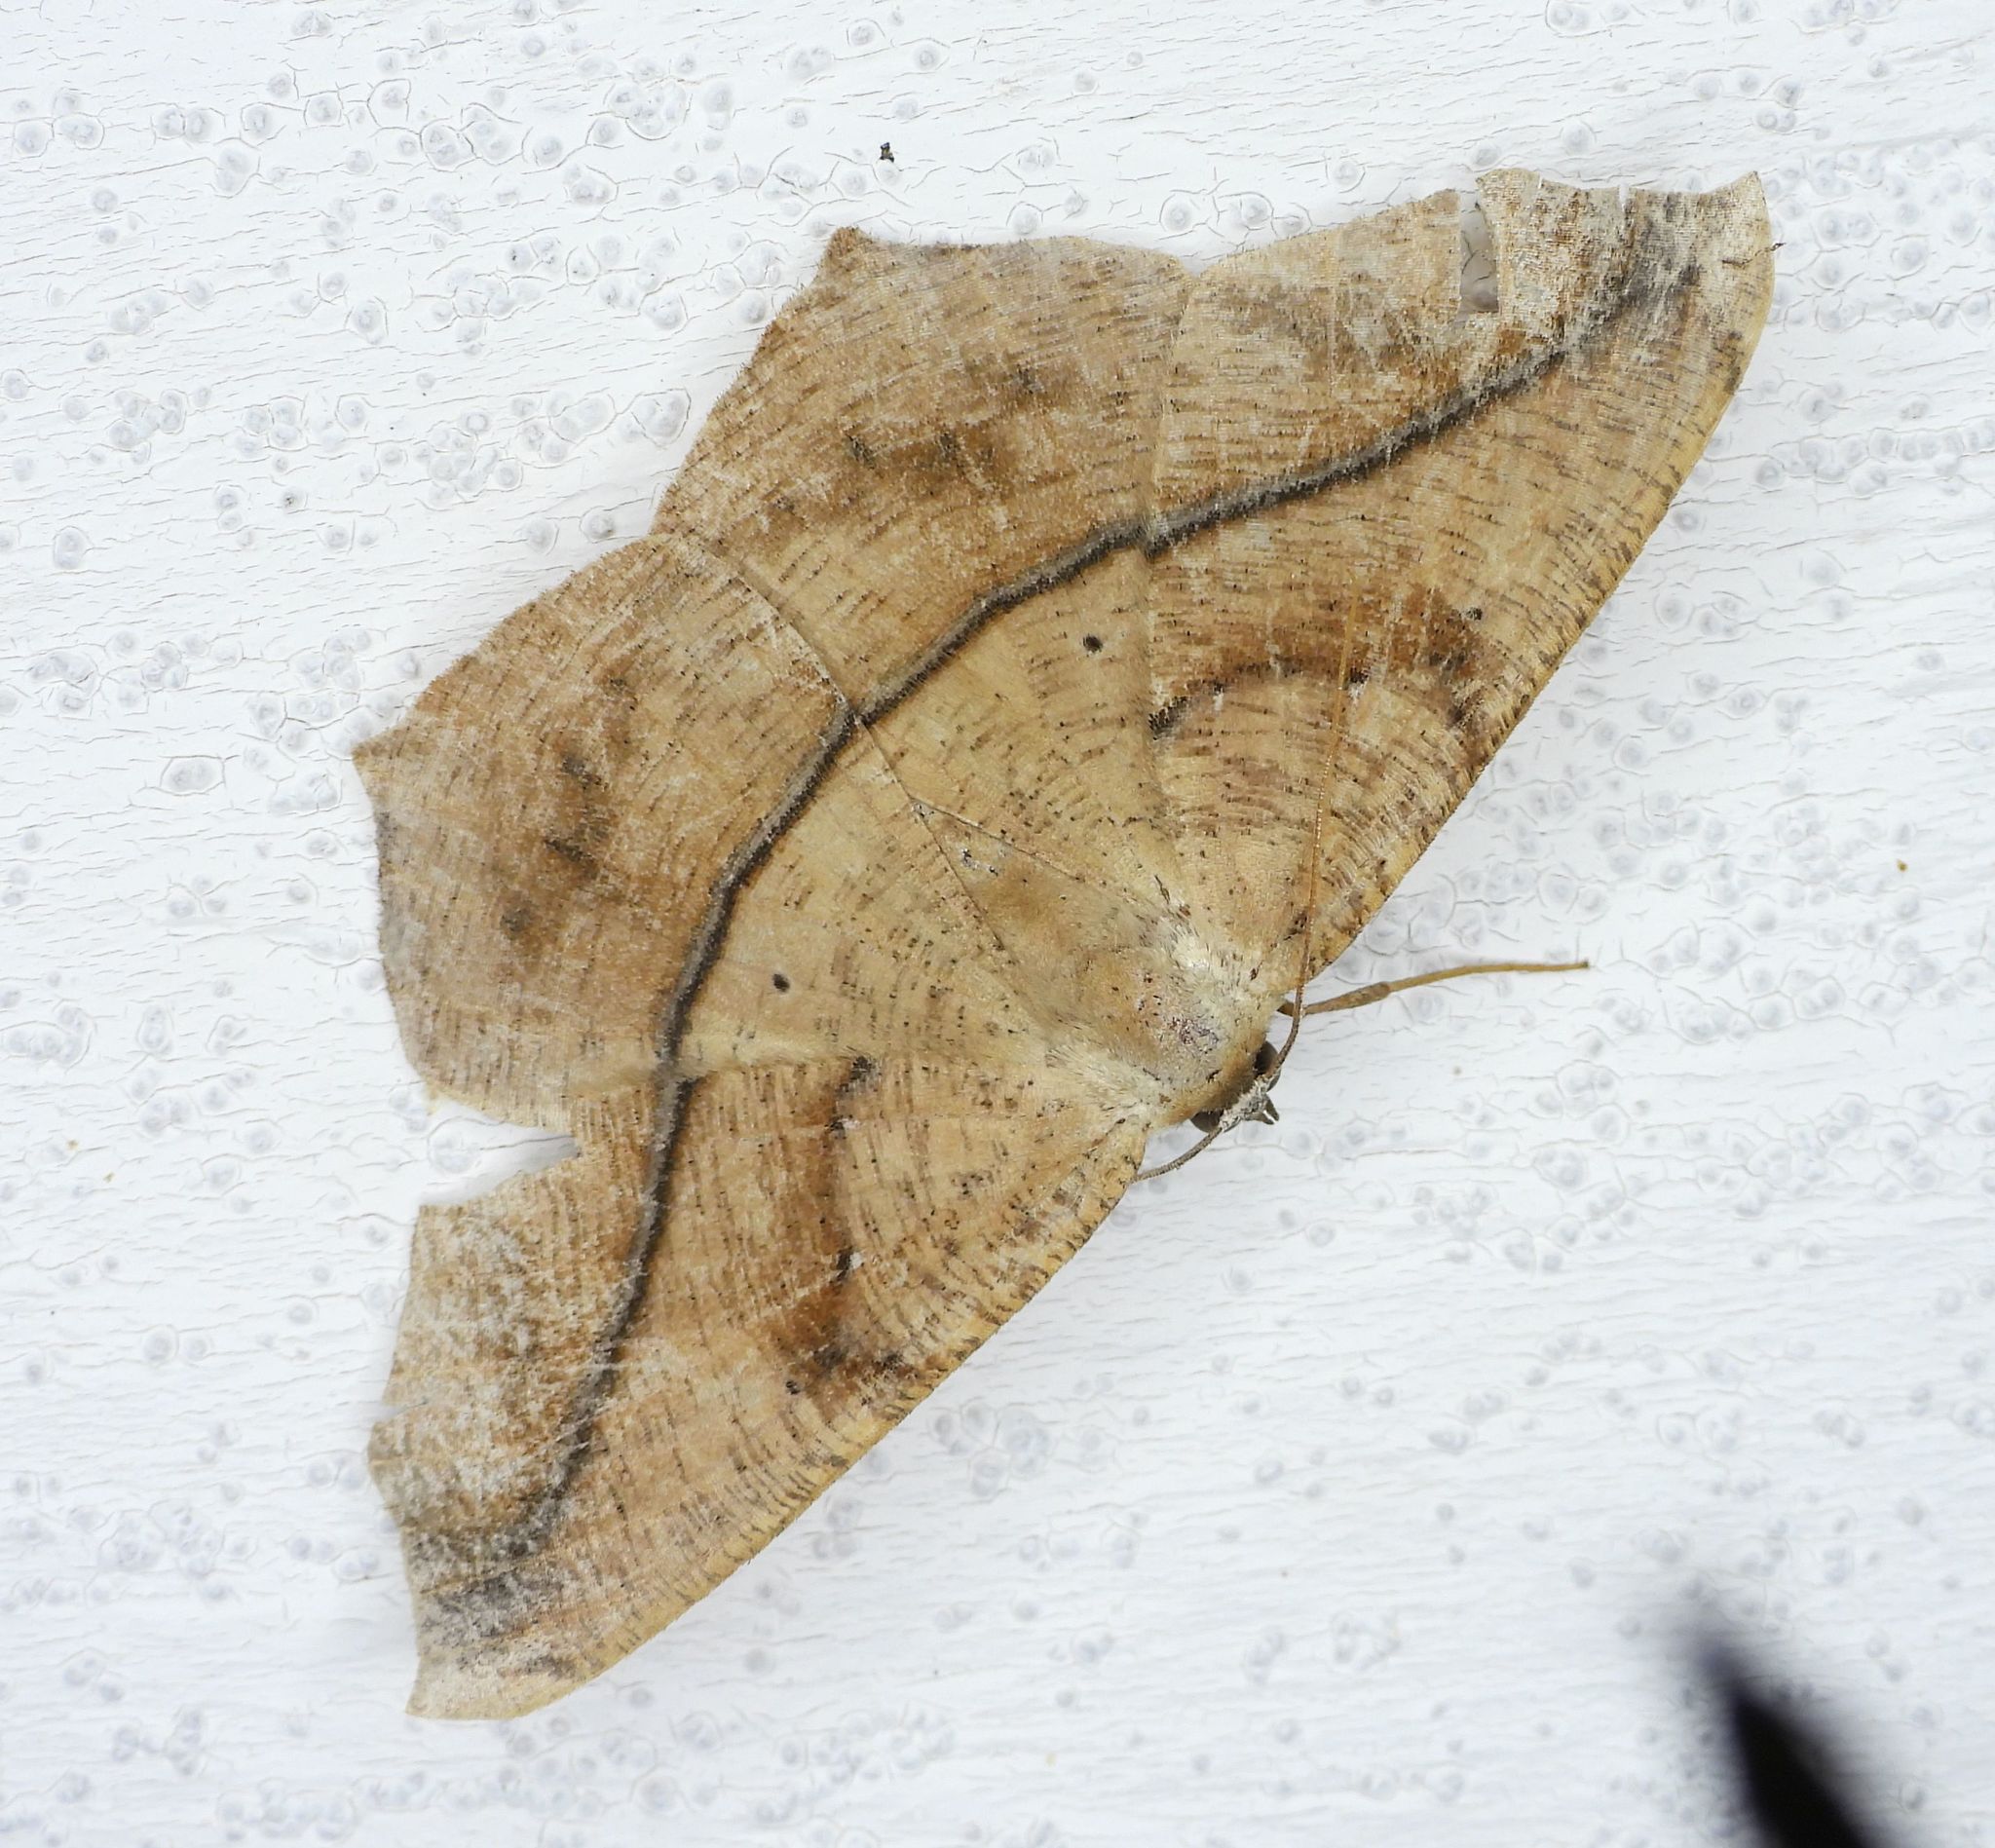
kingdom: Animalia
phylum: Arthropoda
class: Insecta
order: Lepidoptera
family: Geometridae
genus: Prochoerodes
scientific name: Prochoerodes lineola
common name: Large maple spanworm
